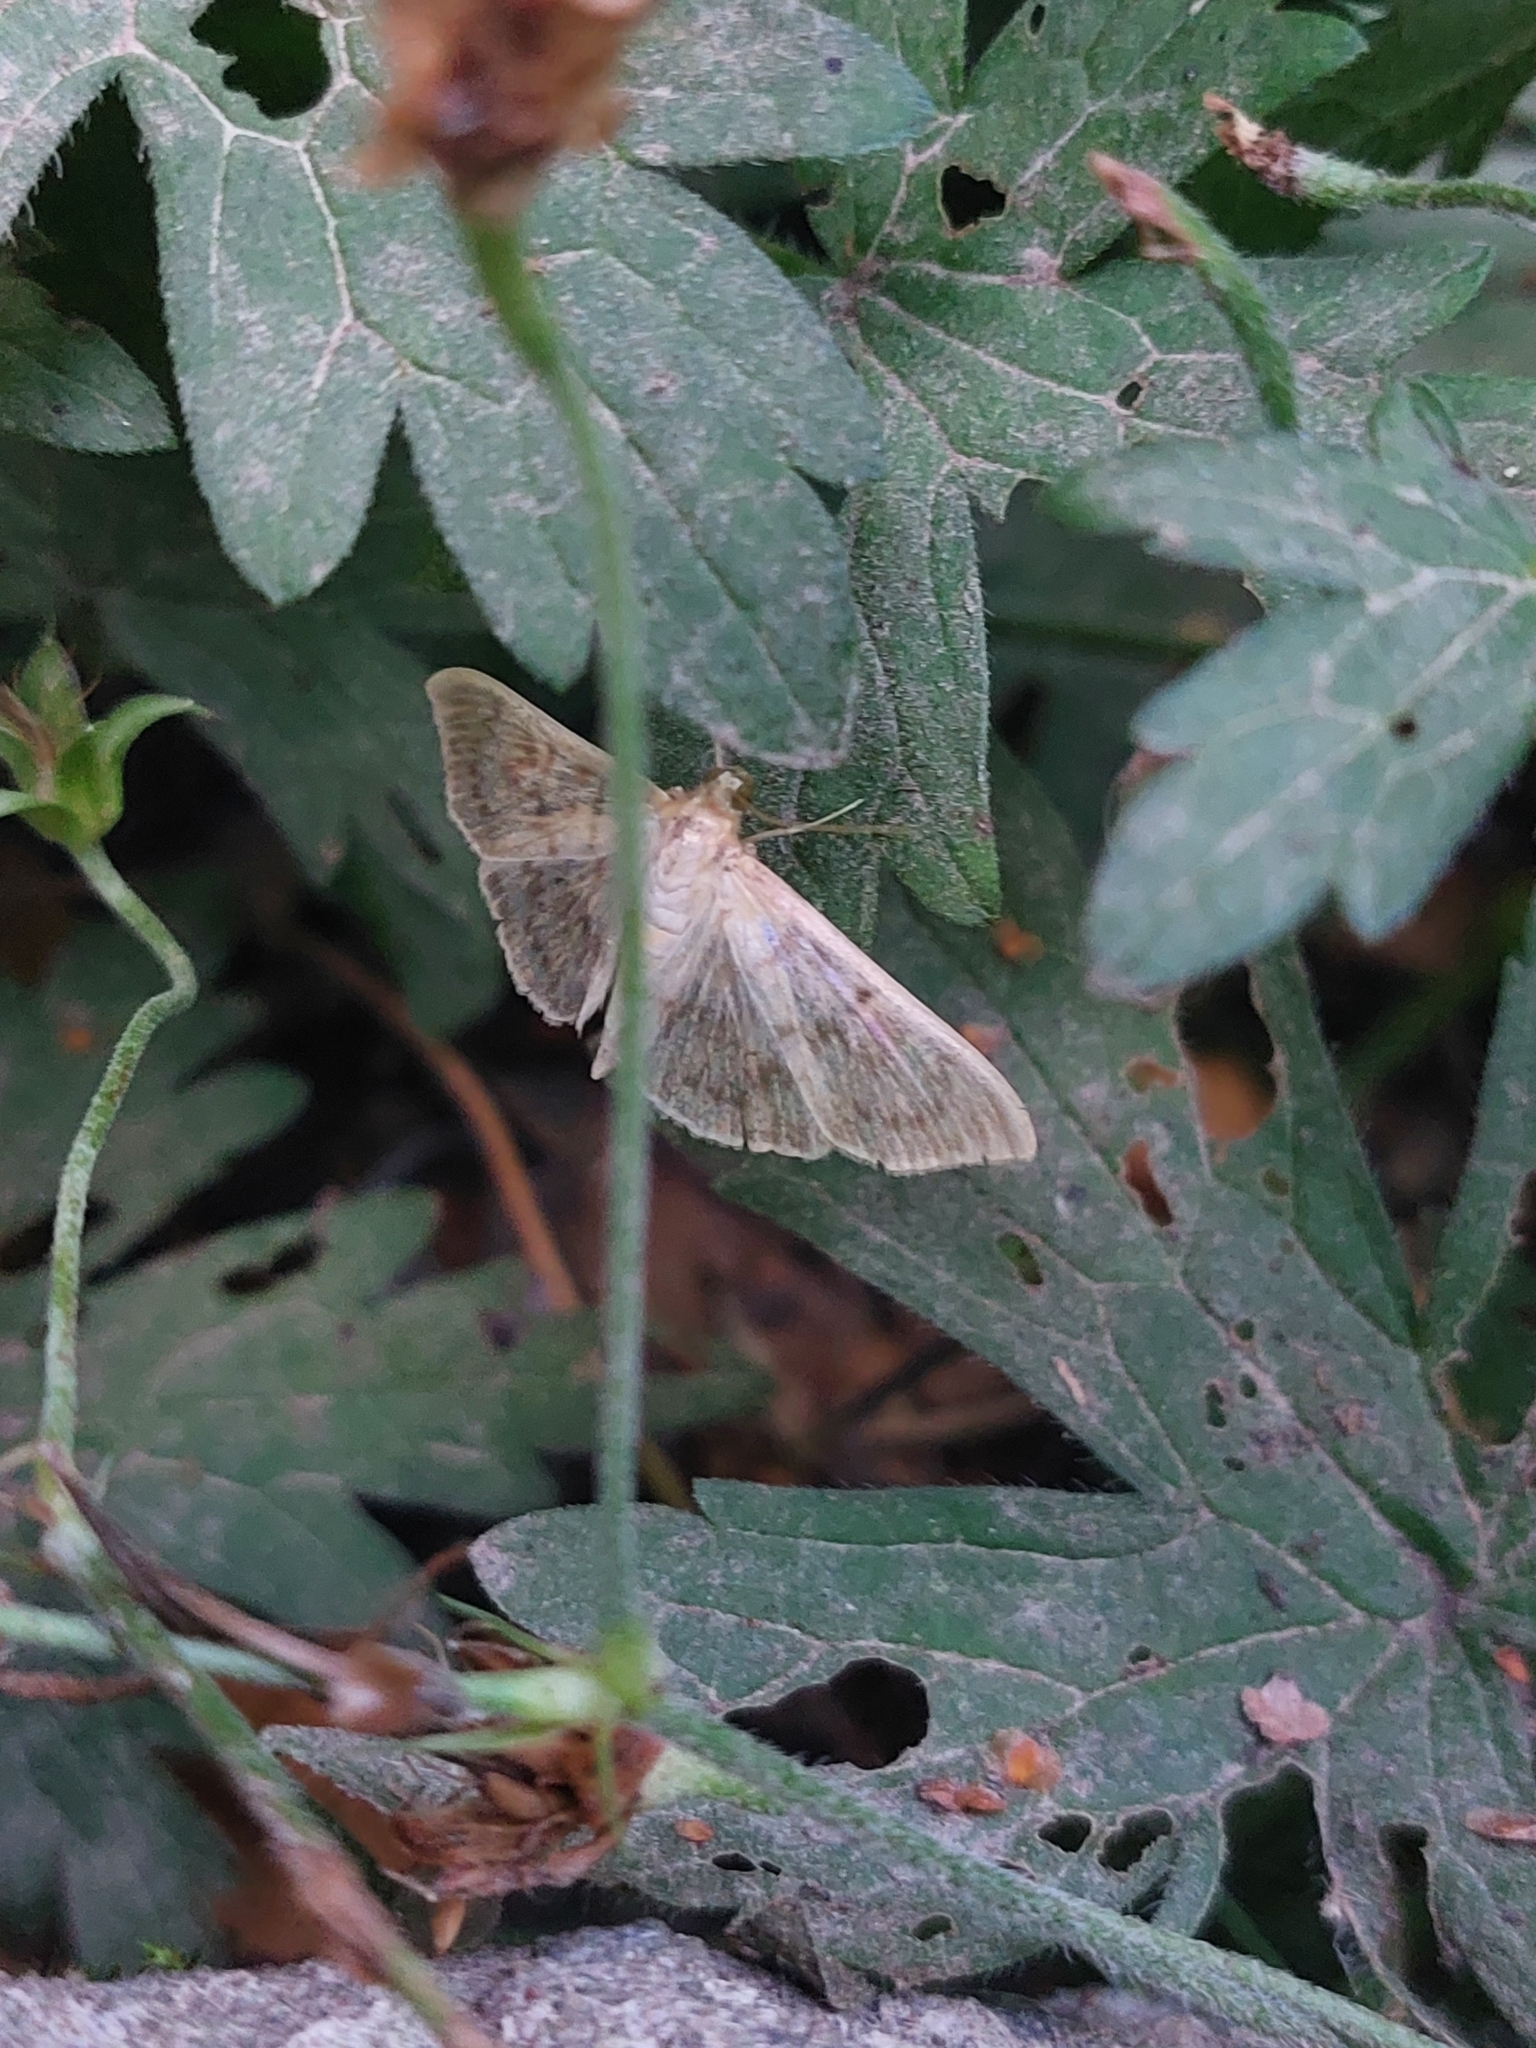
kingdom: Animalia
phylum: Arthropoda
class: Insecta
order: Lepidoptera
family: Crambidae
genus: Patania
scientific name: Patania ruralis
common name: Mother of pearl
